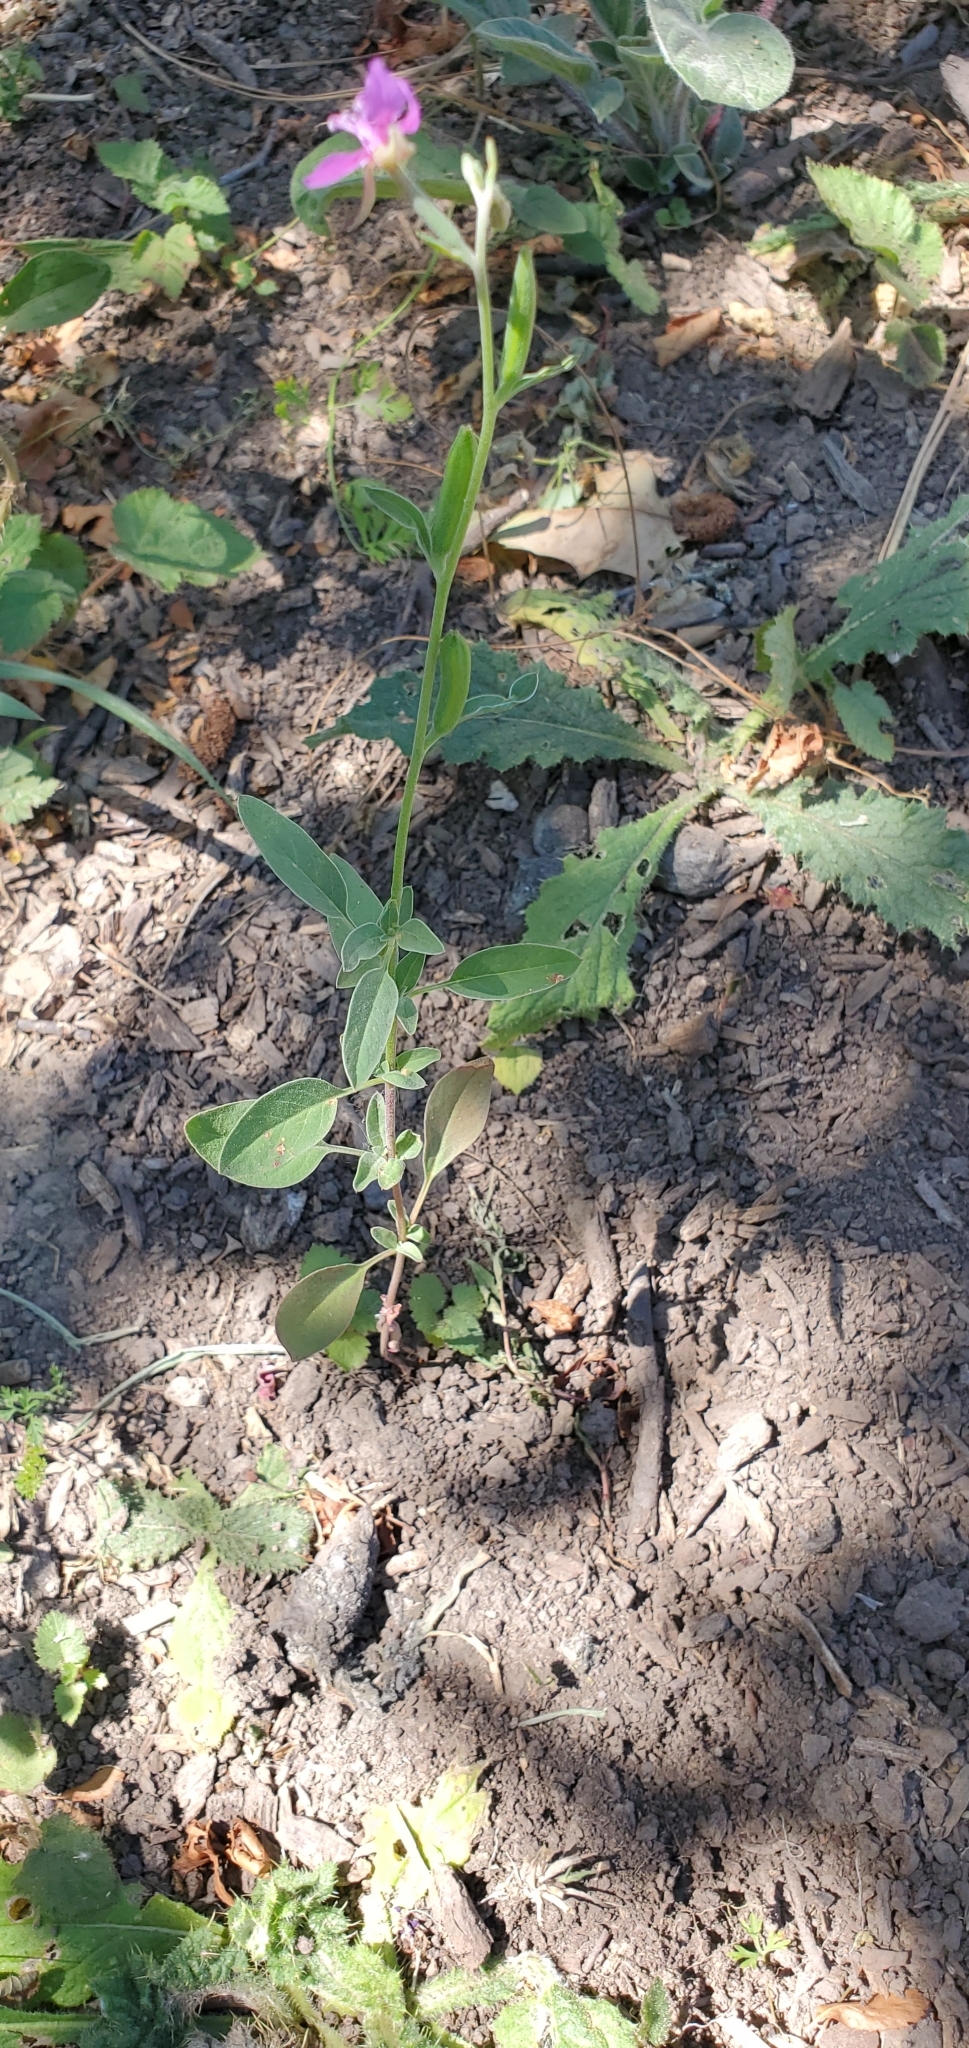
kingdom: Plantae
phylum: Tracheophyta
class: Magnoliopsida
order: Myrtales
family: Onagraceae
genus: Clarkia
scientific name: Clarkia rhomboidea
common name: Broadleaf clarkia
